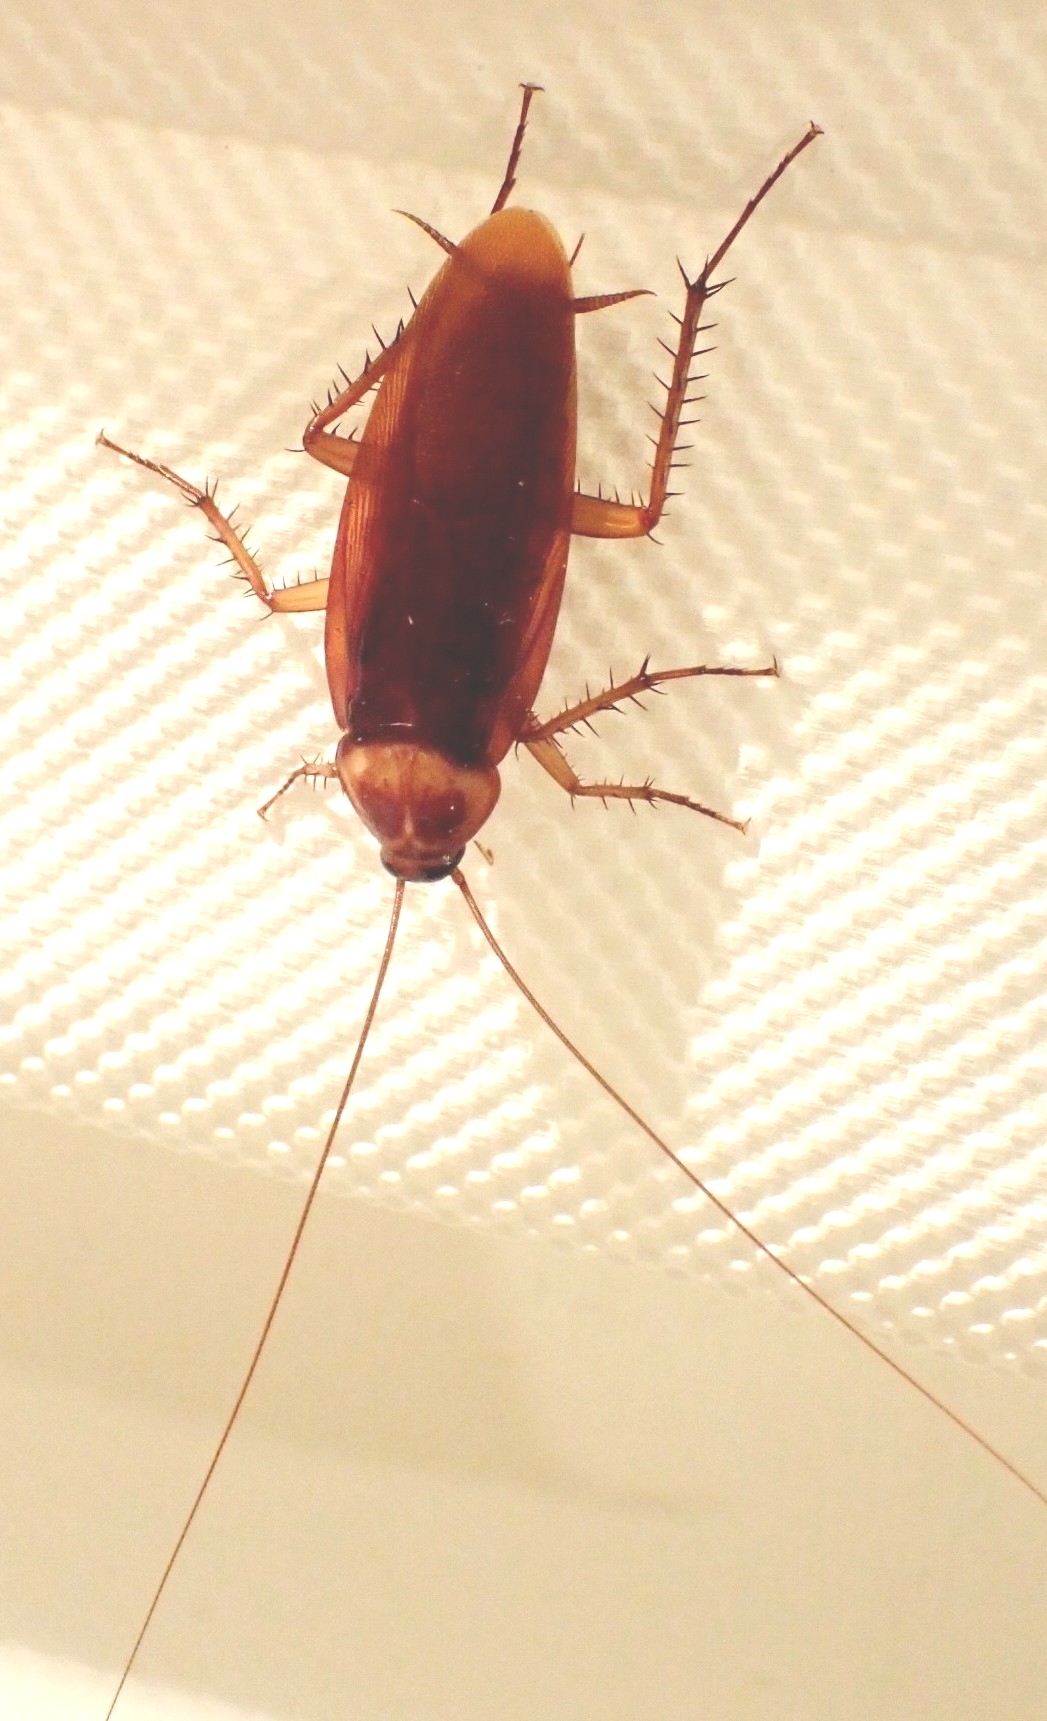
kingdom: Animalia
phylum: Arthropoda
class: Insecta
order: Blattodea
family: Blattidae
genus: Periplaneta
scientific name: Periplaneta americana
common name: American cockroach
